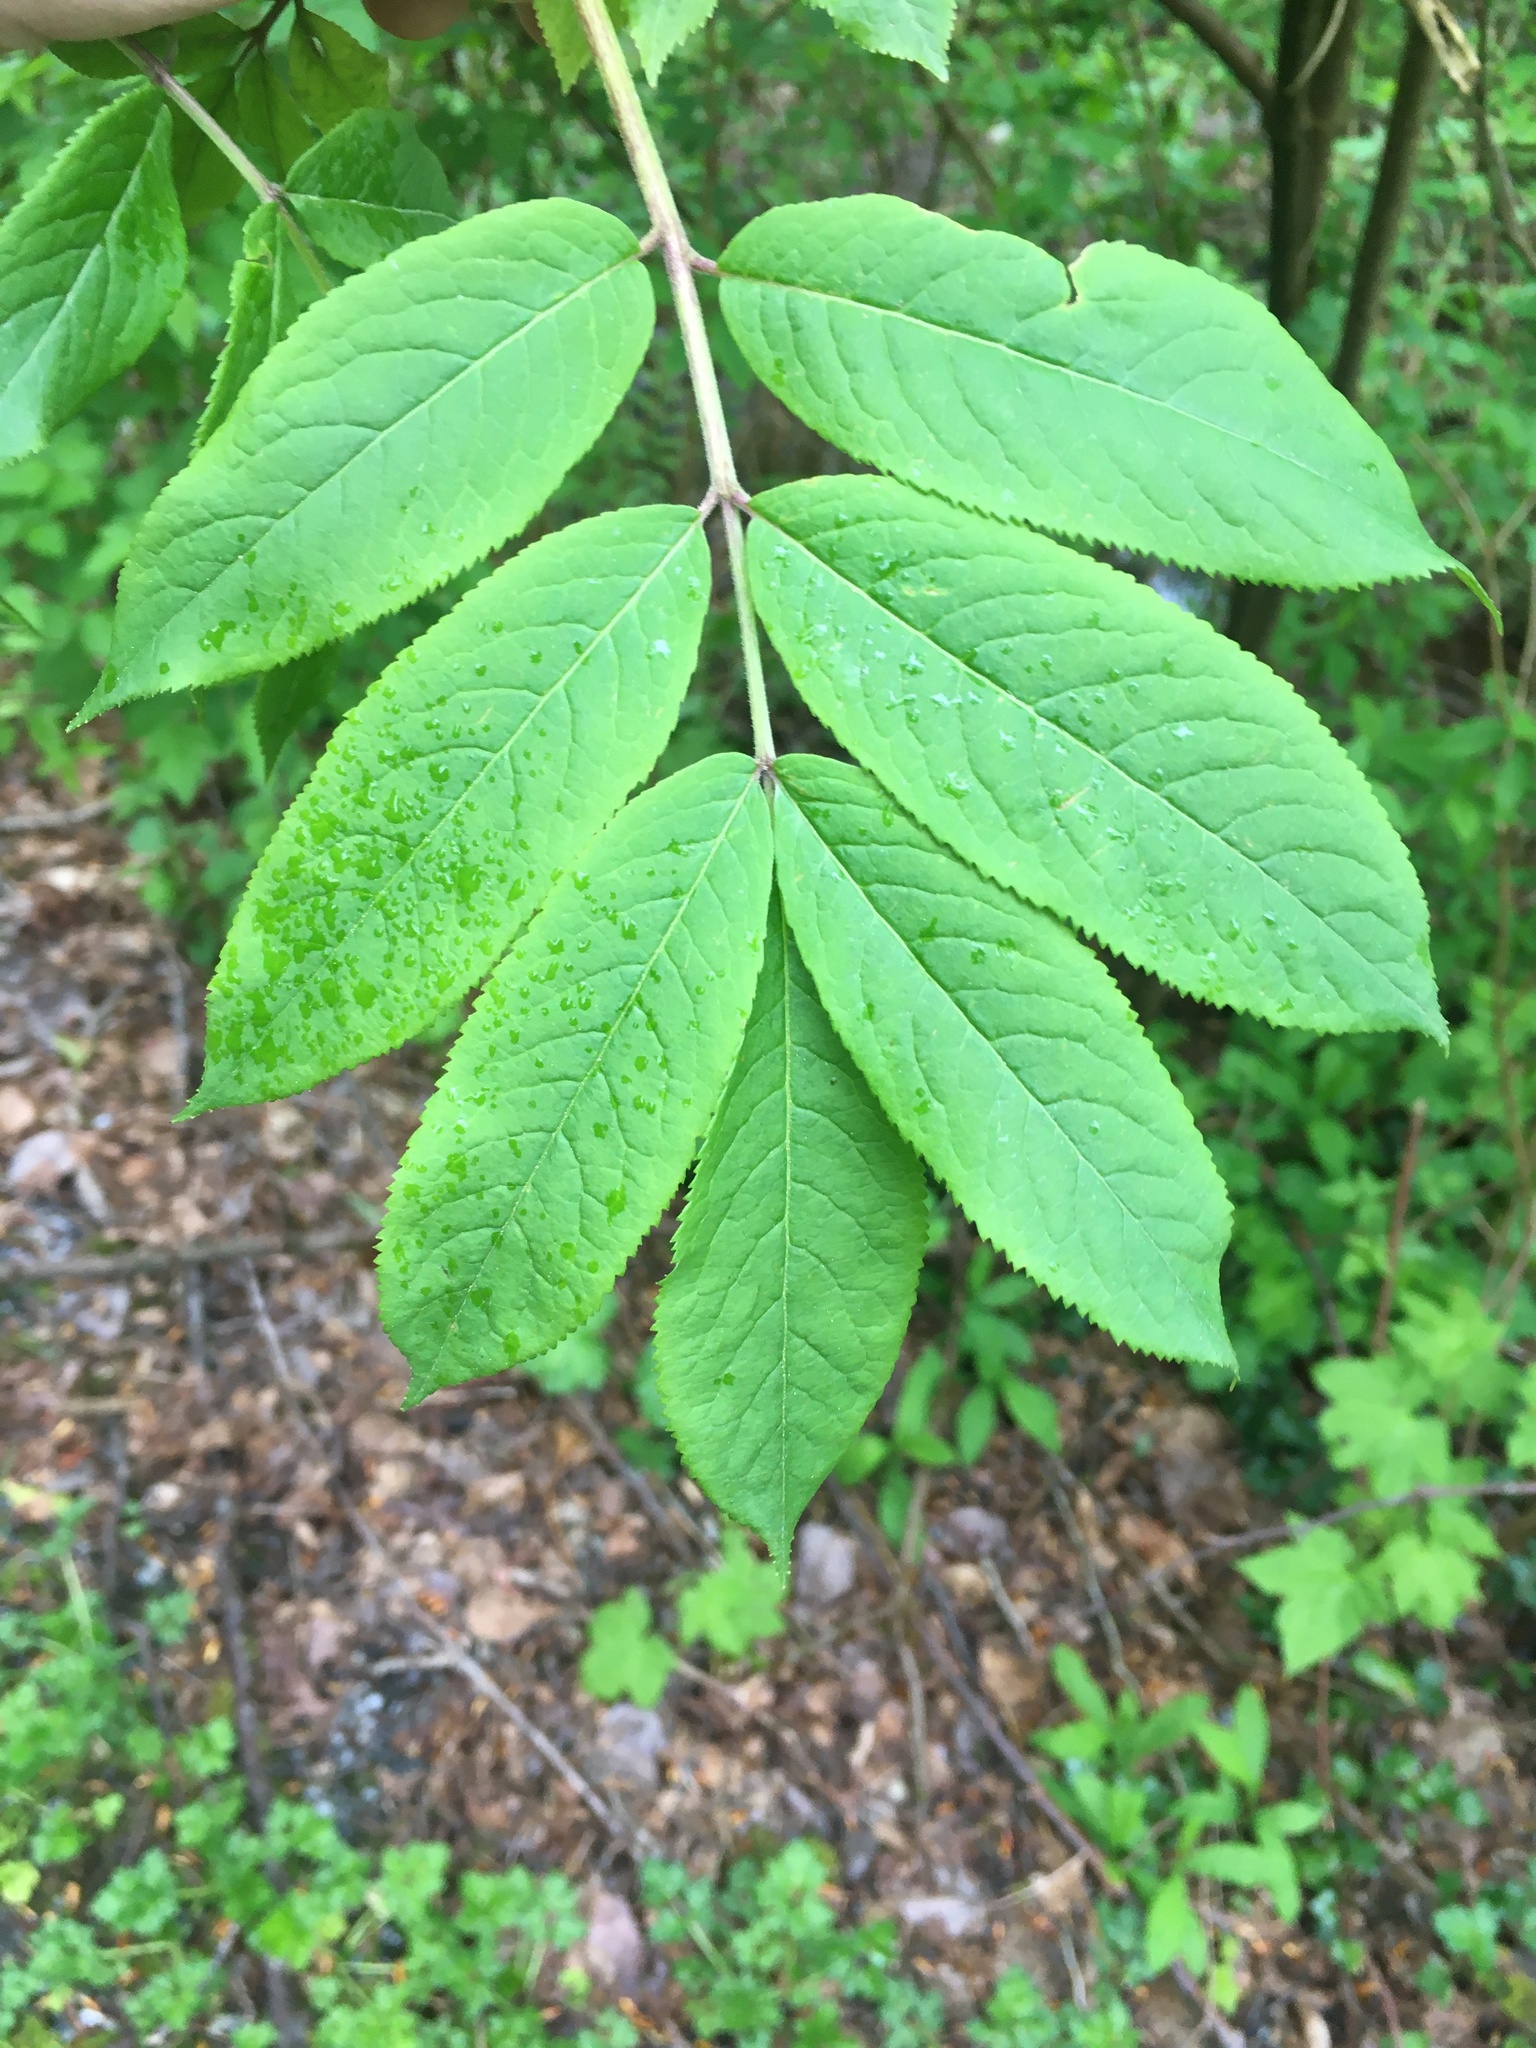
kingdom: Plantae
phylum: Tracheophyta
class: Magnoliopsida
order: Dipsacales
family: Viburnaceae
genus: Sambucus
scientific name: Sambucus racemosa
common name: Red-berried elder
